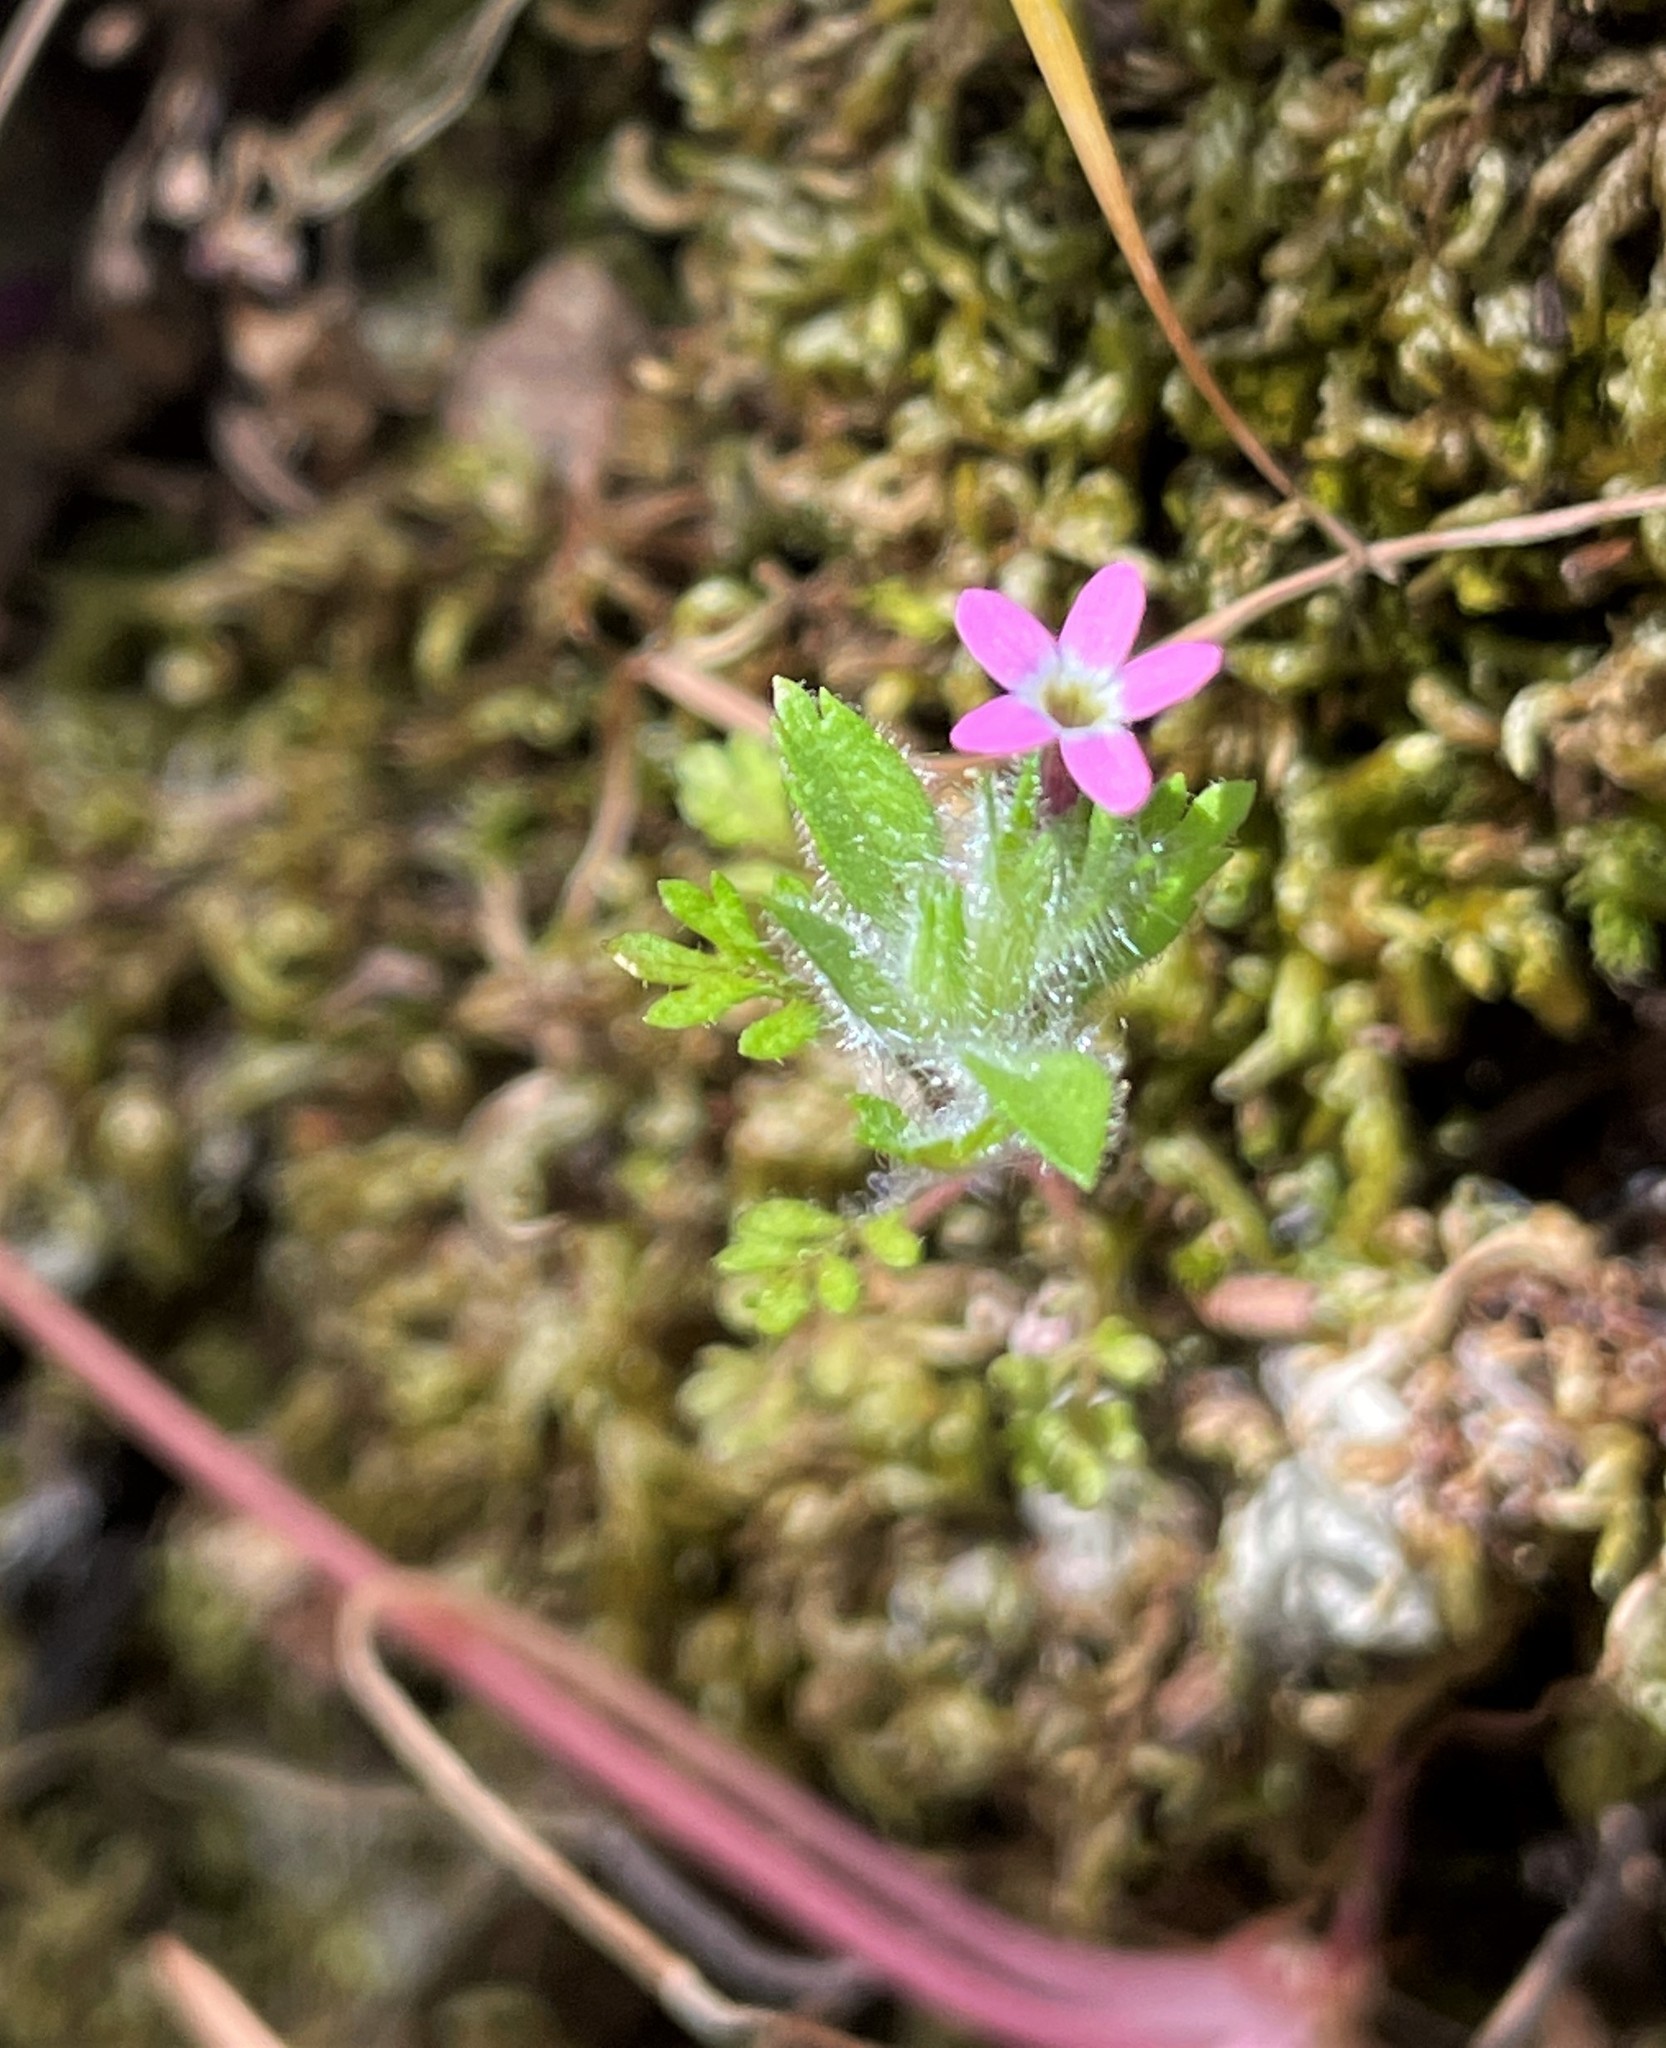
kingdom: Plantae
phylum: Tracheophyta
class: Magnoliopsida
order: Ericales
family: Polemoniaceae
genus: Collomia
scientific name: Collomia heterophylla
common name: Variable-leaved collomia
